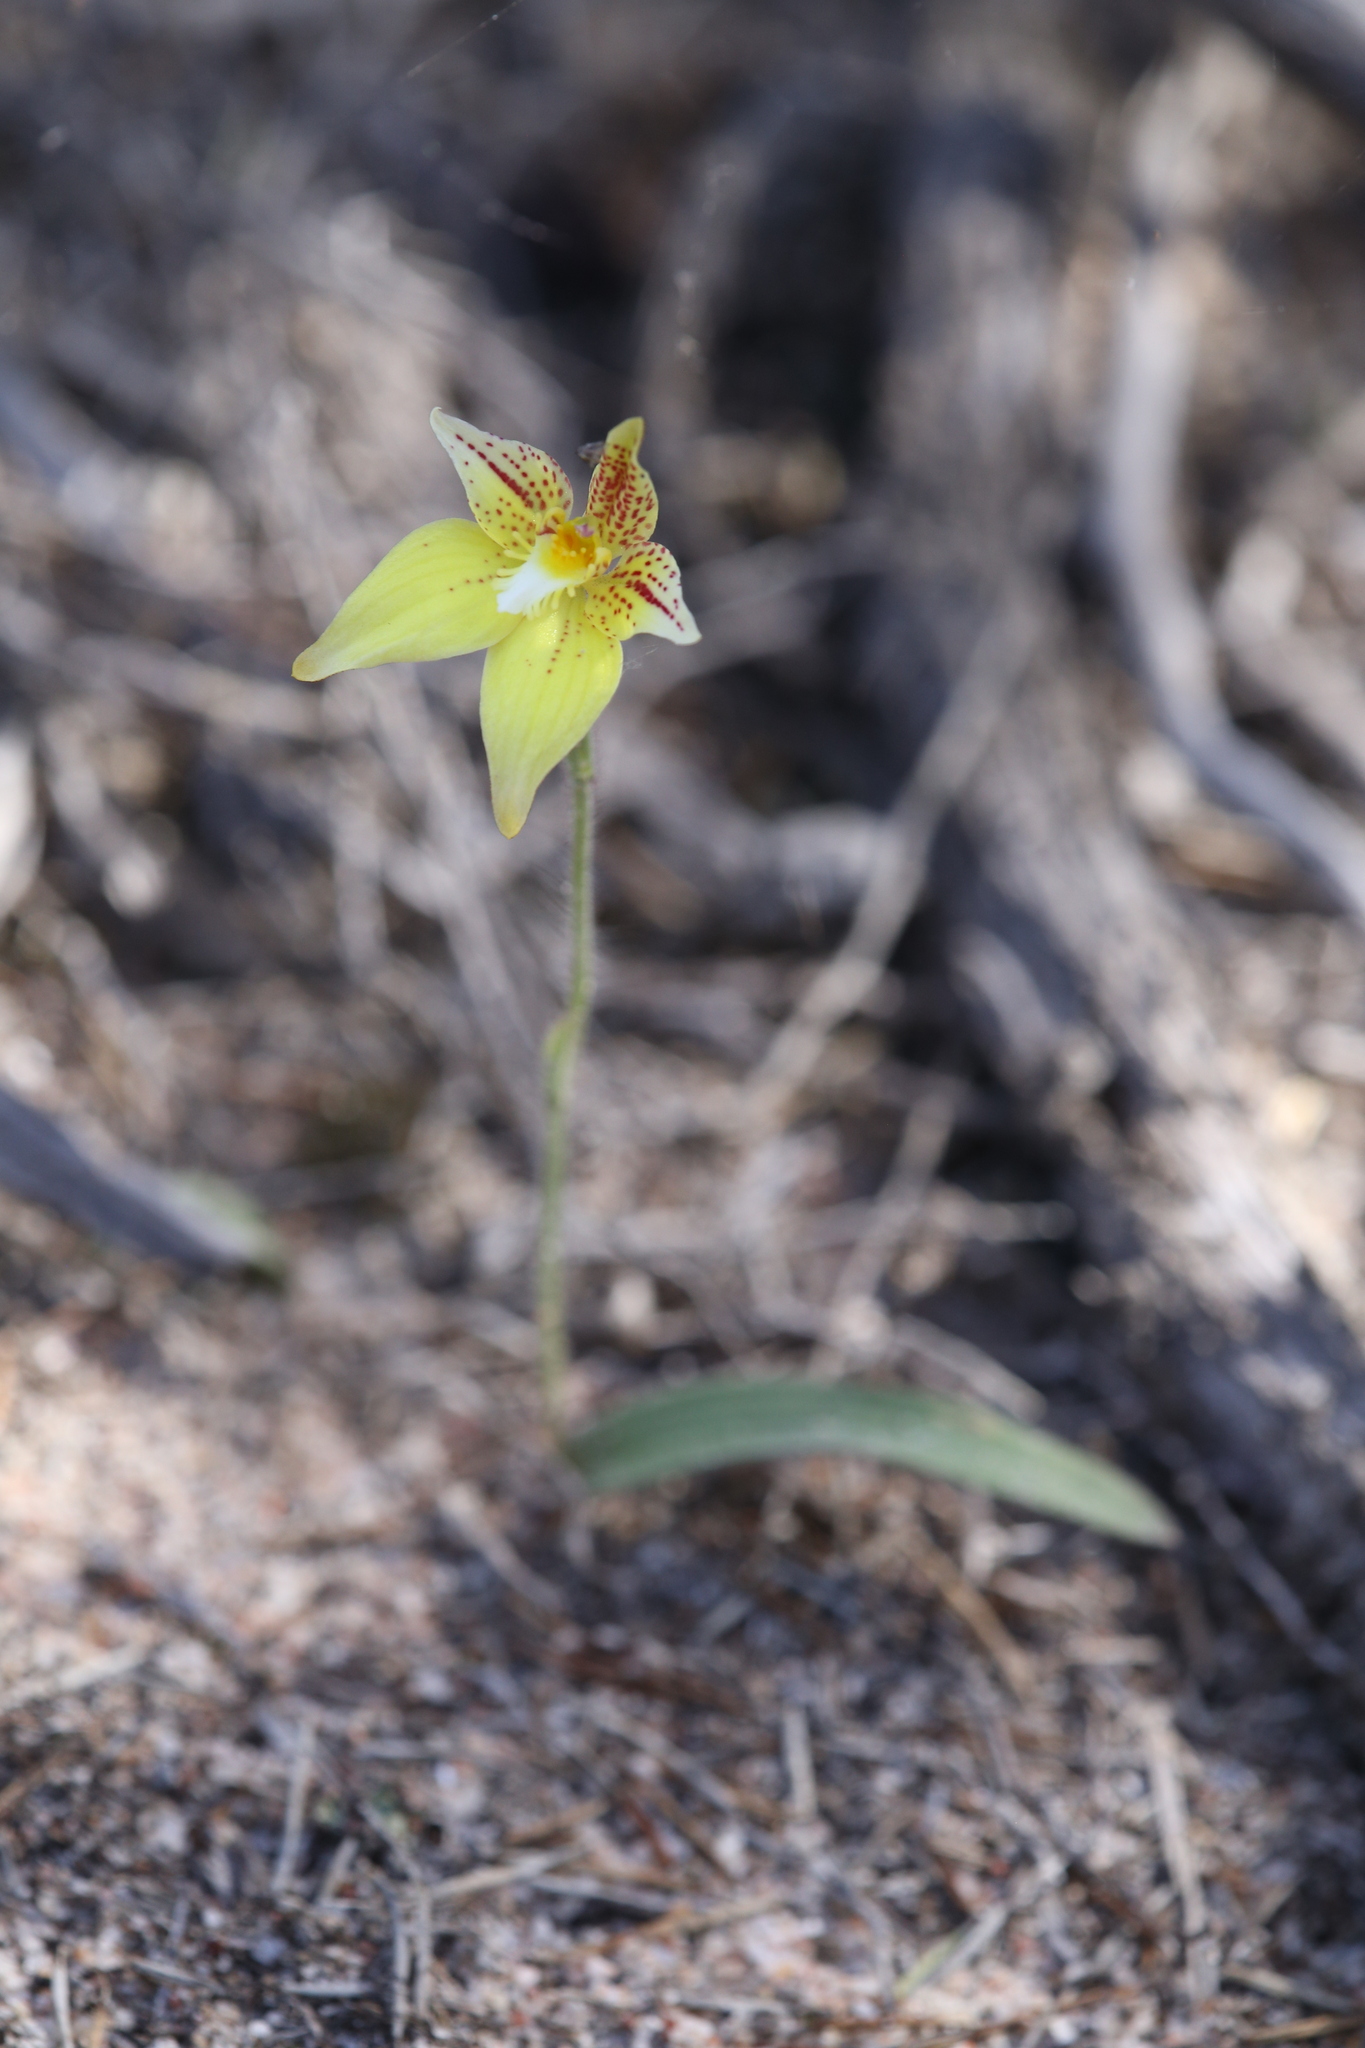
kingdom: Plantae
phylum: Tracheophyta
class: Liliopsida
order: Asparagales
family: Orchidaceae
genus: Caladenia
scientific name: Caladenia flava
